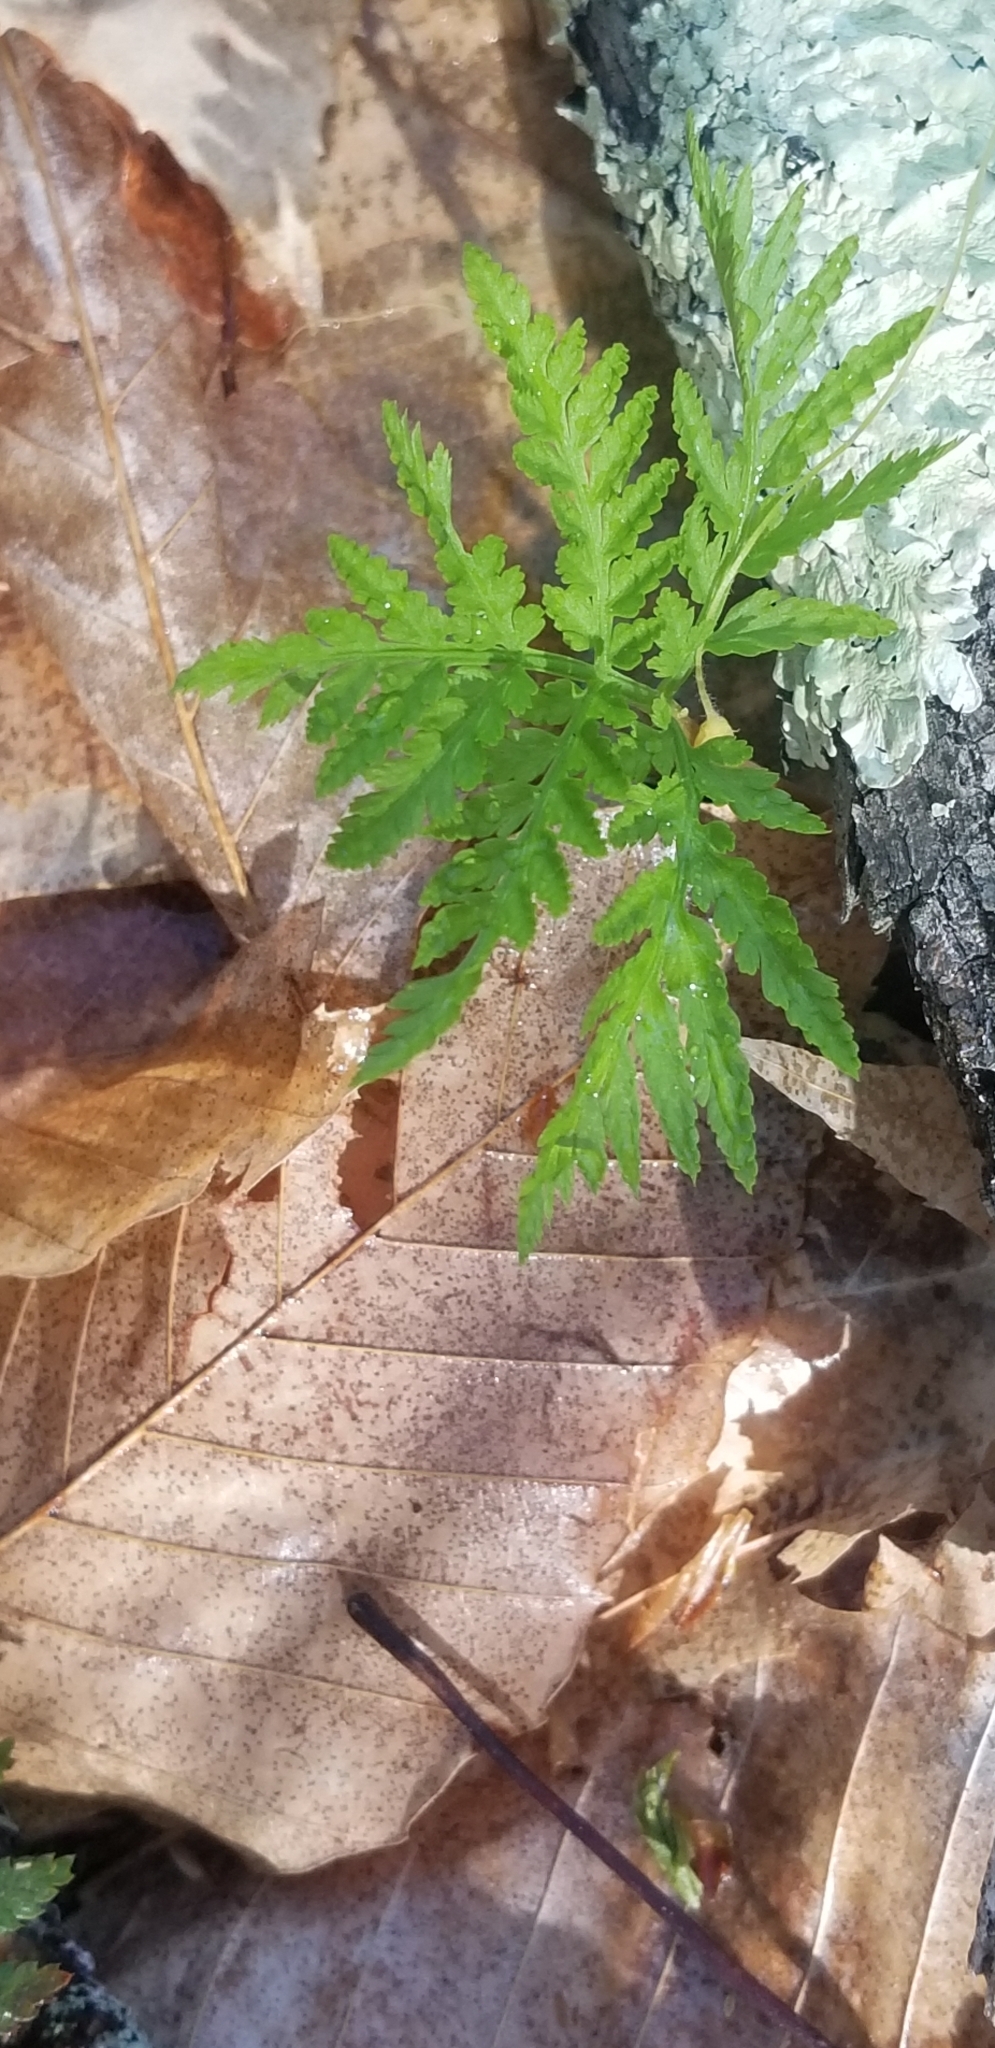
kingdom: Plantae
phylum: Tracheophyta
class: Polypodiopsida
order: Ophioglossales
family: Ophioglossaceae
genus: Botrypus
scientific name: Botrypus virginianus
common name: Common grapefern
